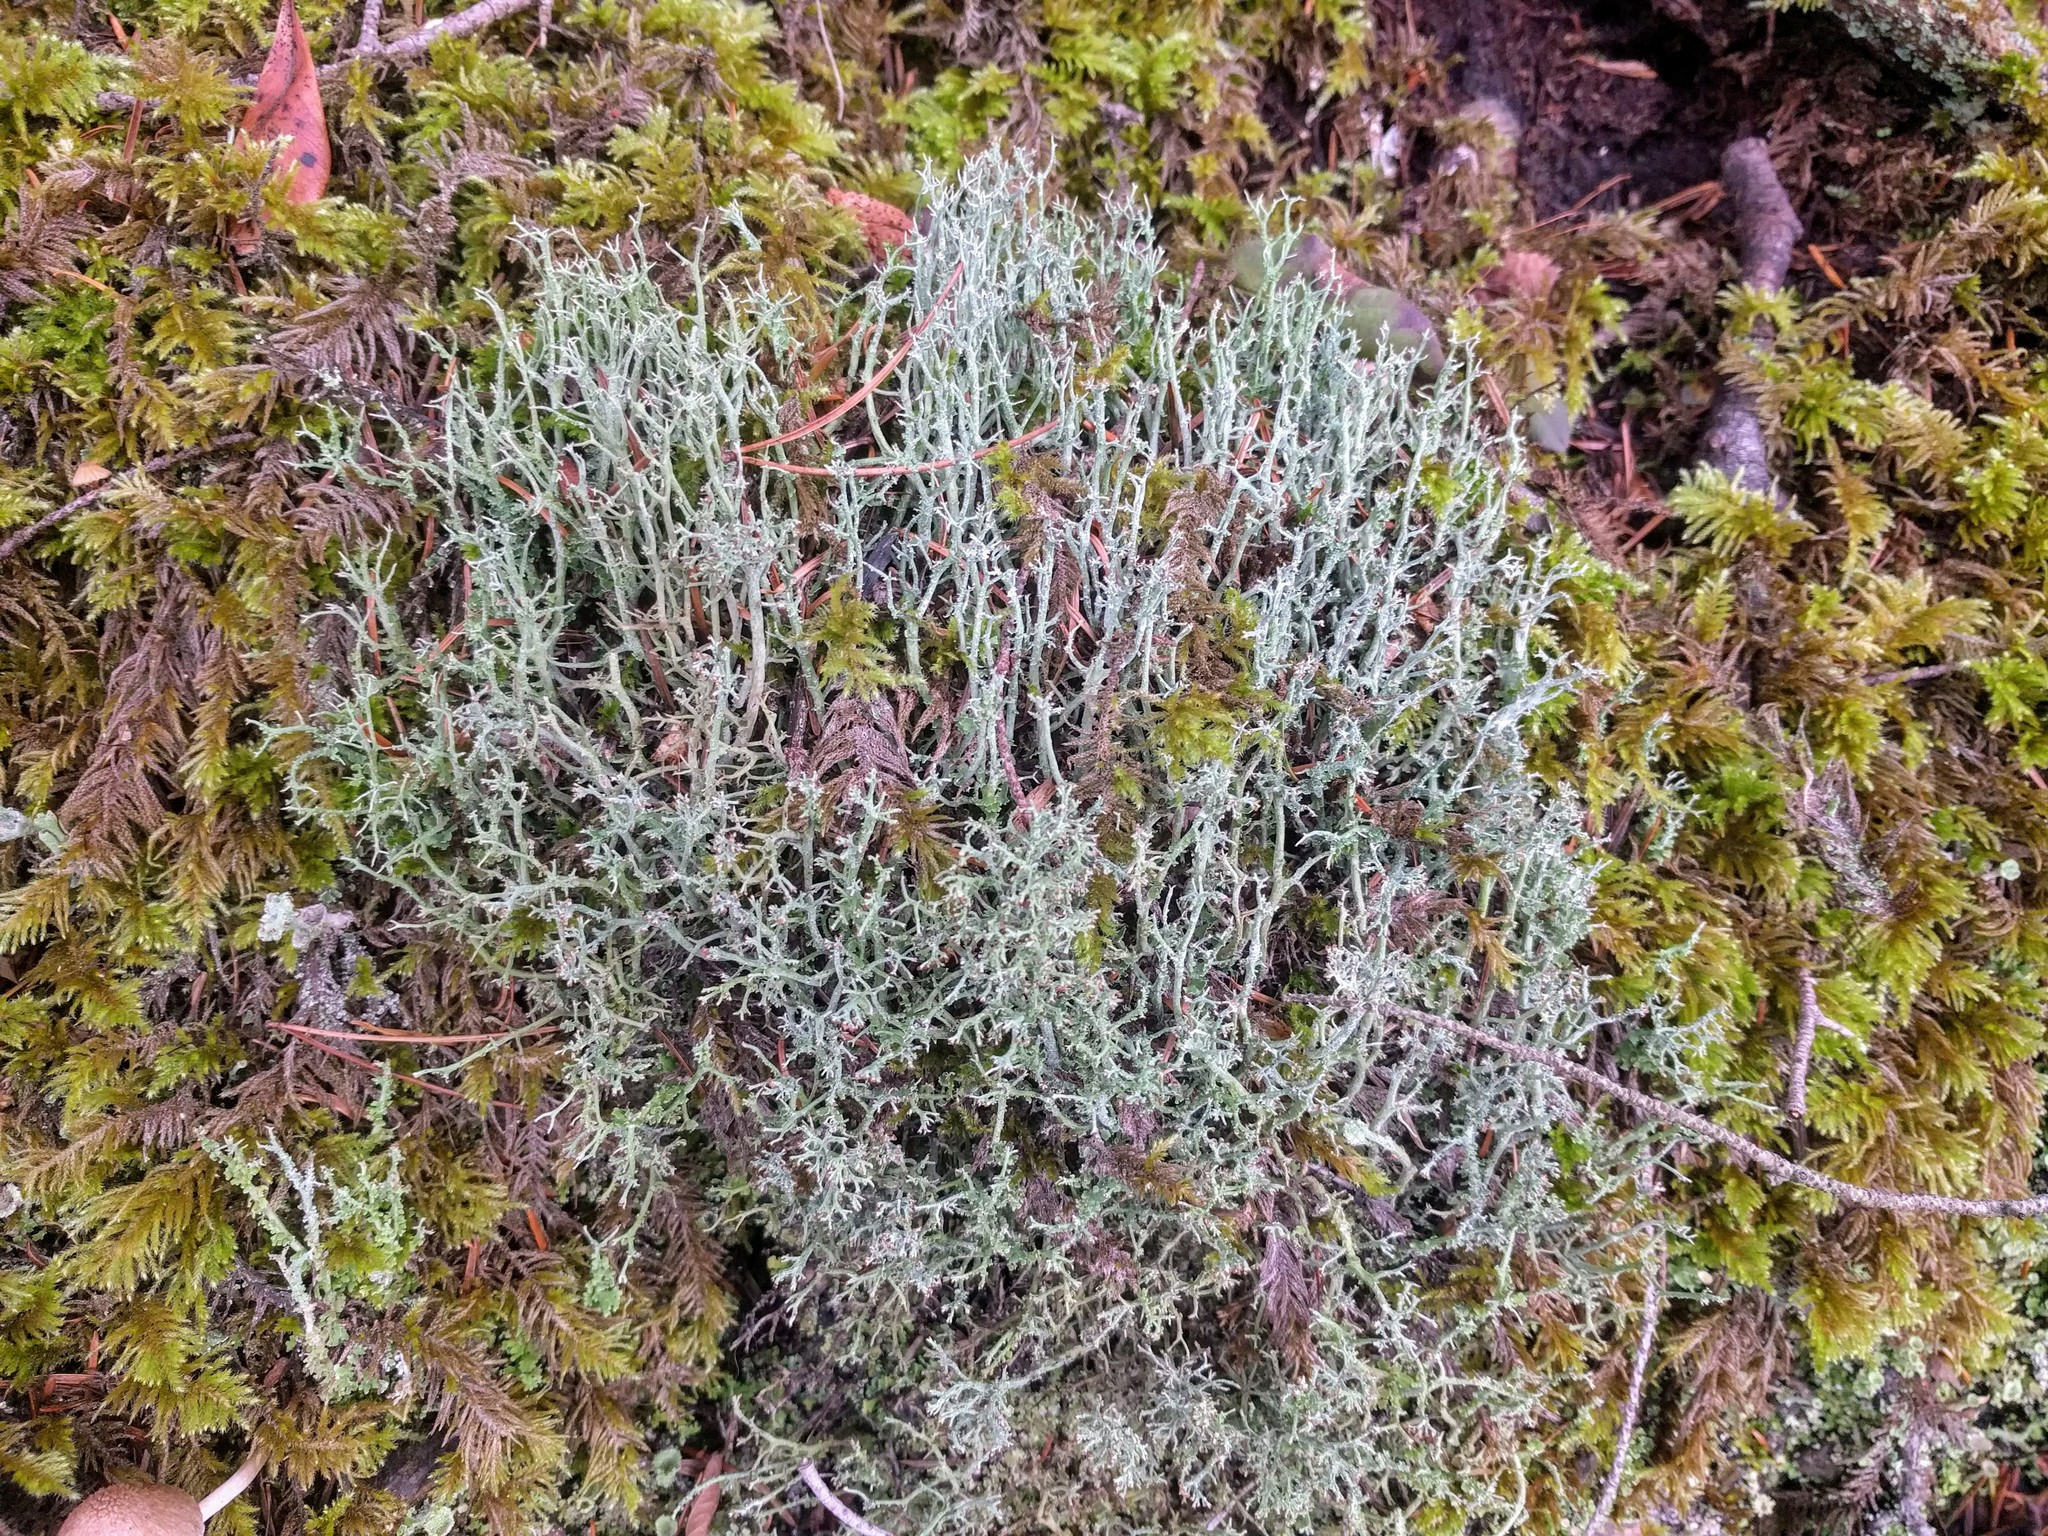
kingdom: Fungi
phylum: Ascomycota
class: Lecanoromycetes
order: Lecanorales
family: Cladoniaceae
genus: Cladonia
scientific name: Cladonia furcata
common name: Many-forked cladonia
